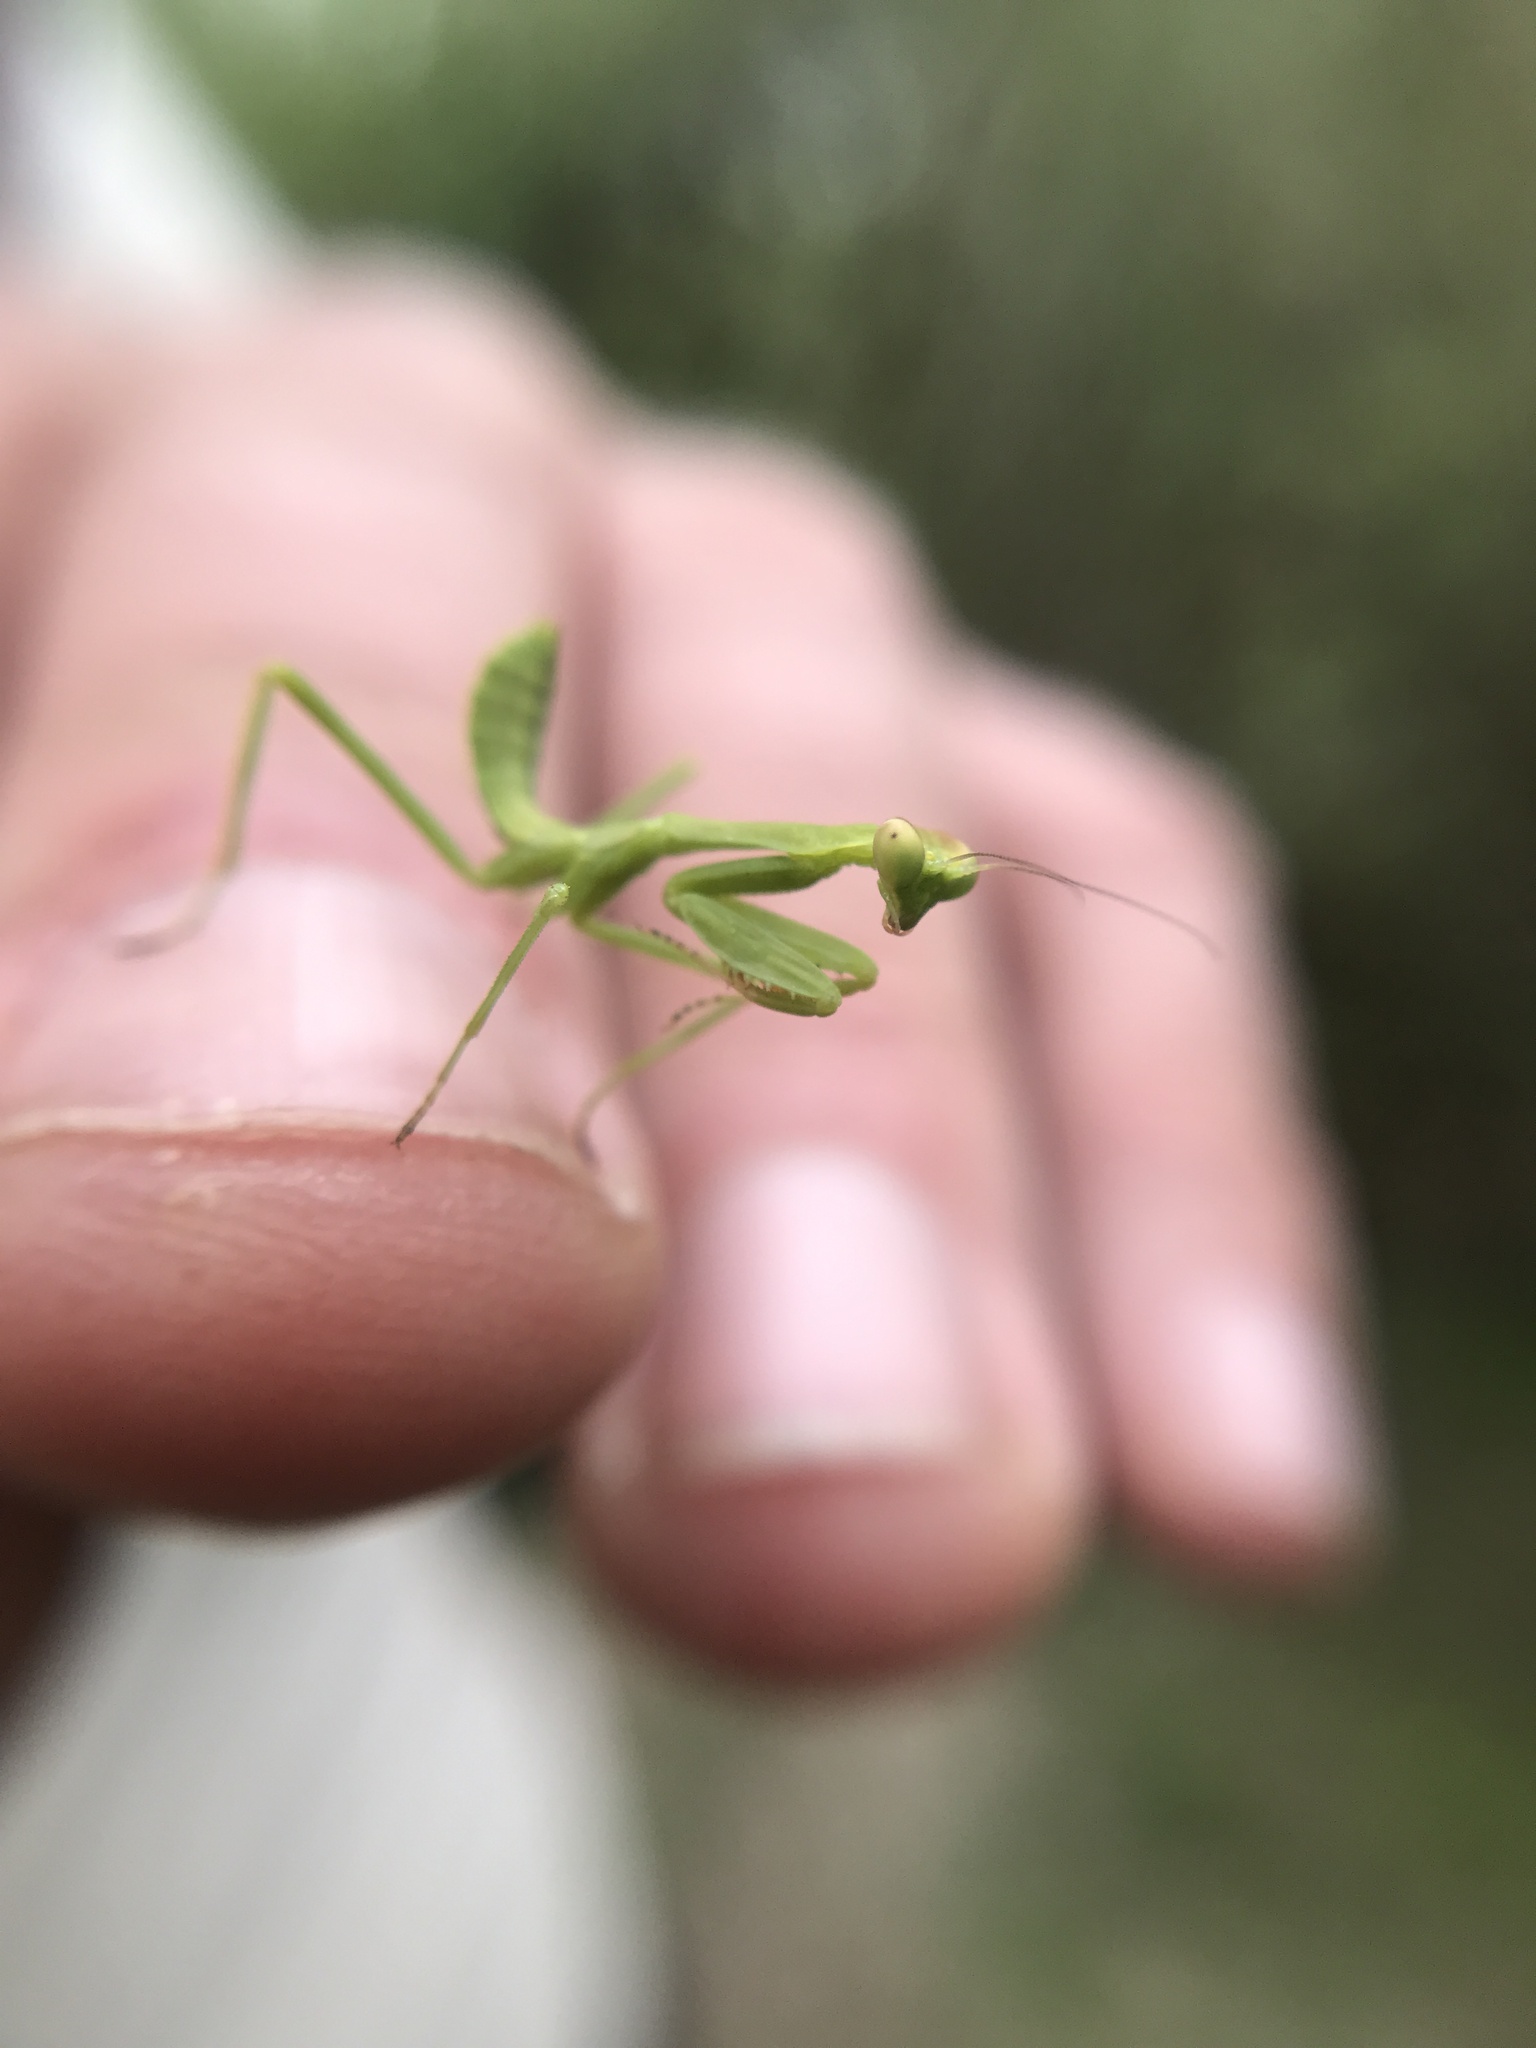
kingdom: Animalia
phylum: Arthropoda
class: Insecta
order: Mantodea
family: Mantidae
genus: Stagmatoptera
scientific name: Stagmatoptera hyaloptera
